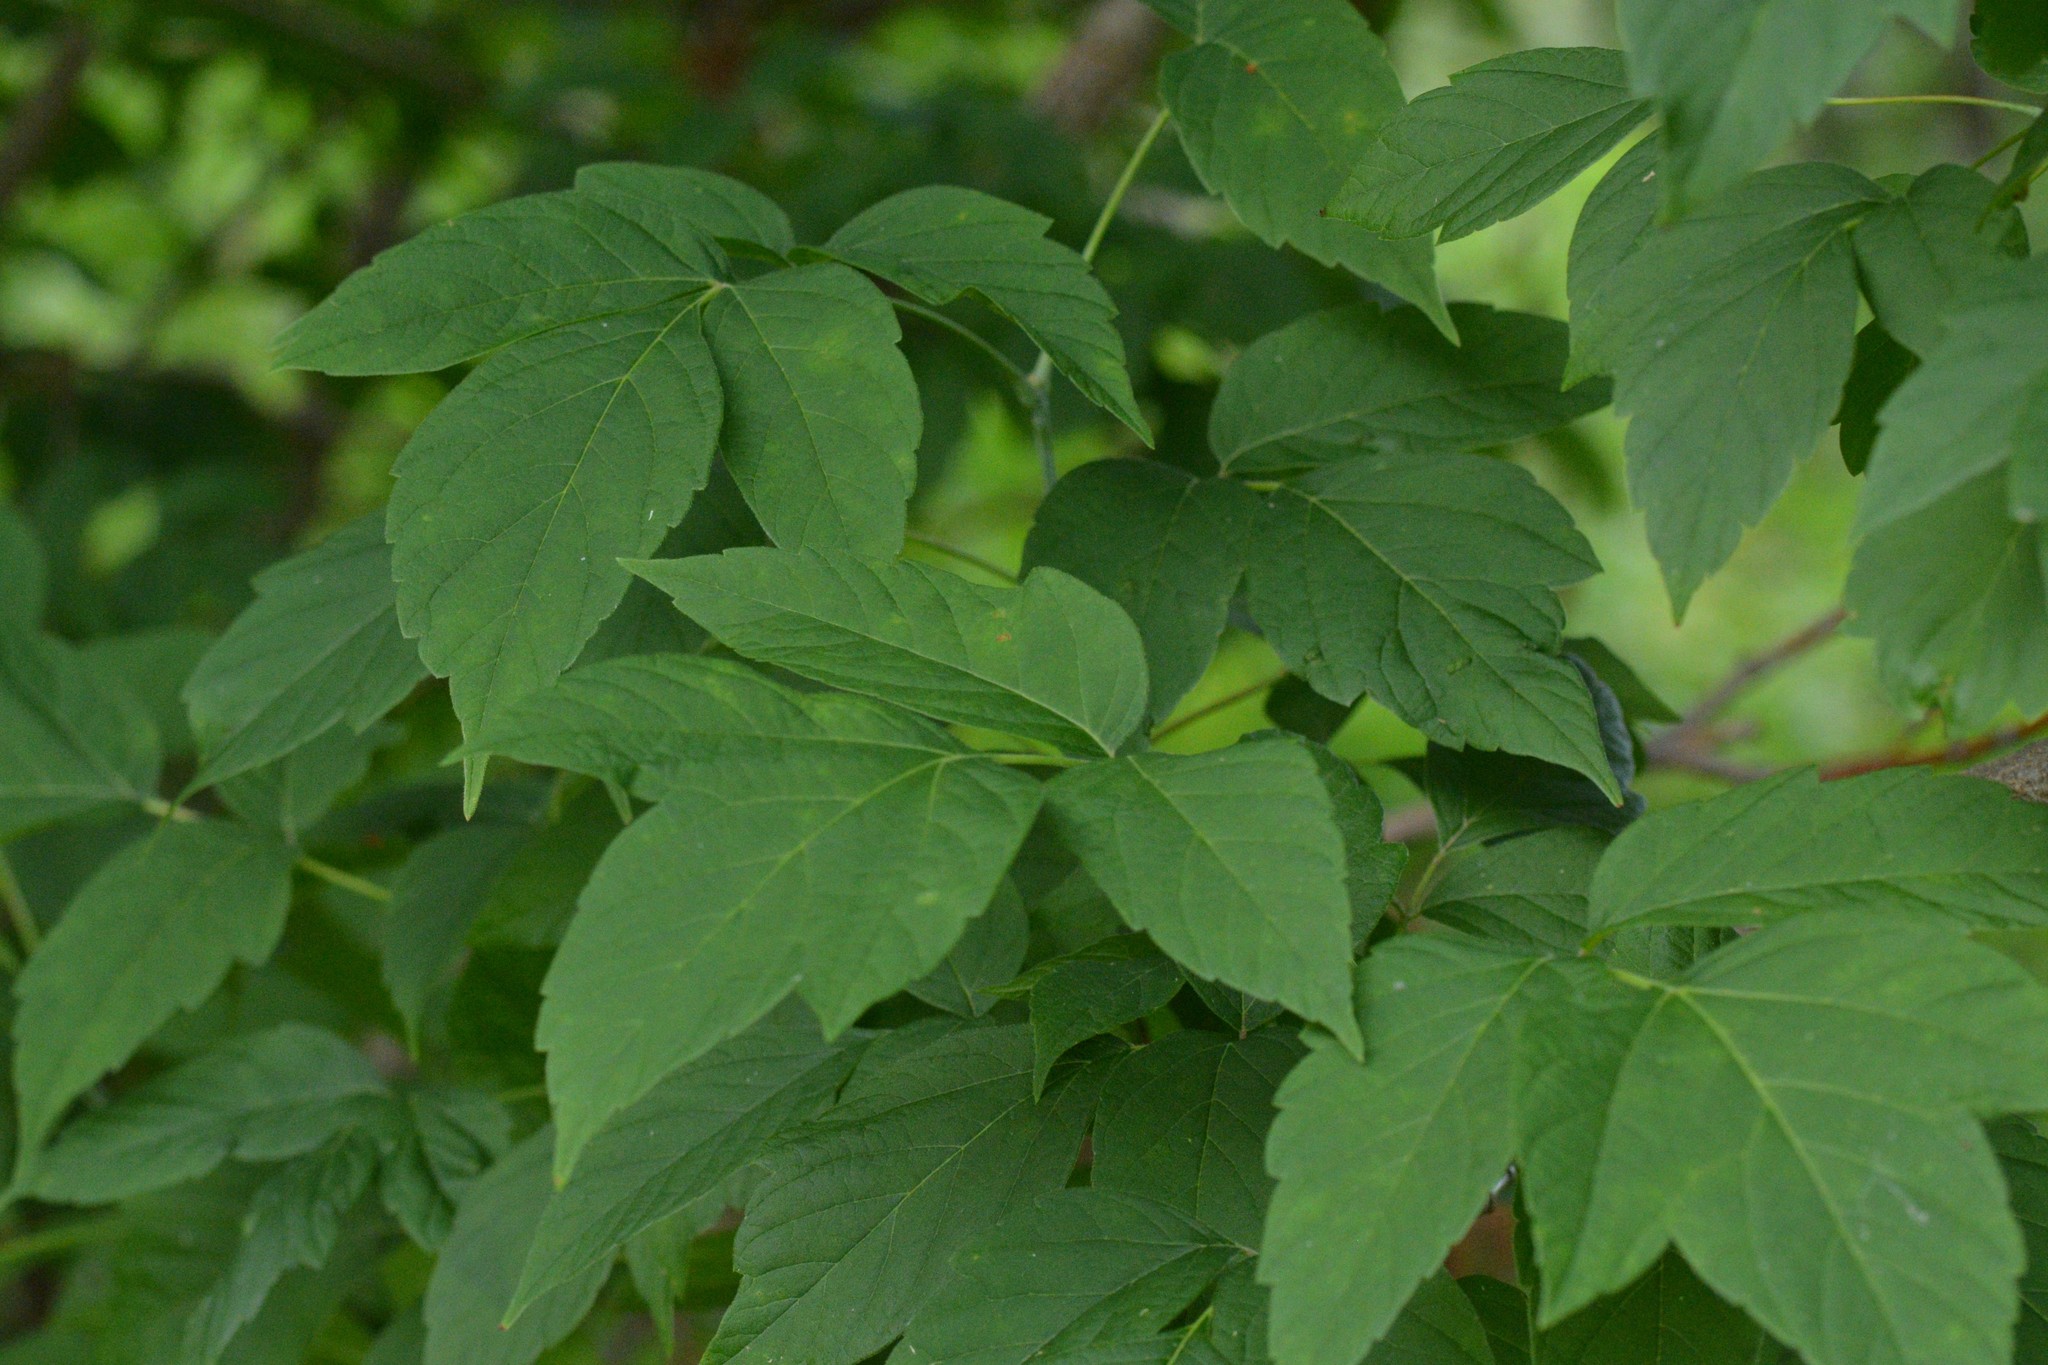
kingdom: Plantae
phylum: Tracheophyta
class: Magnoliopsida
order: Sapindales
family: Sapindaceae
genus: Acer
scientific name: Acer negundo
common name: Ashleaf maple
